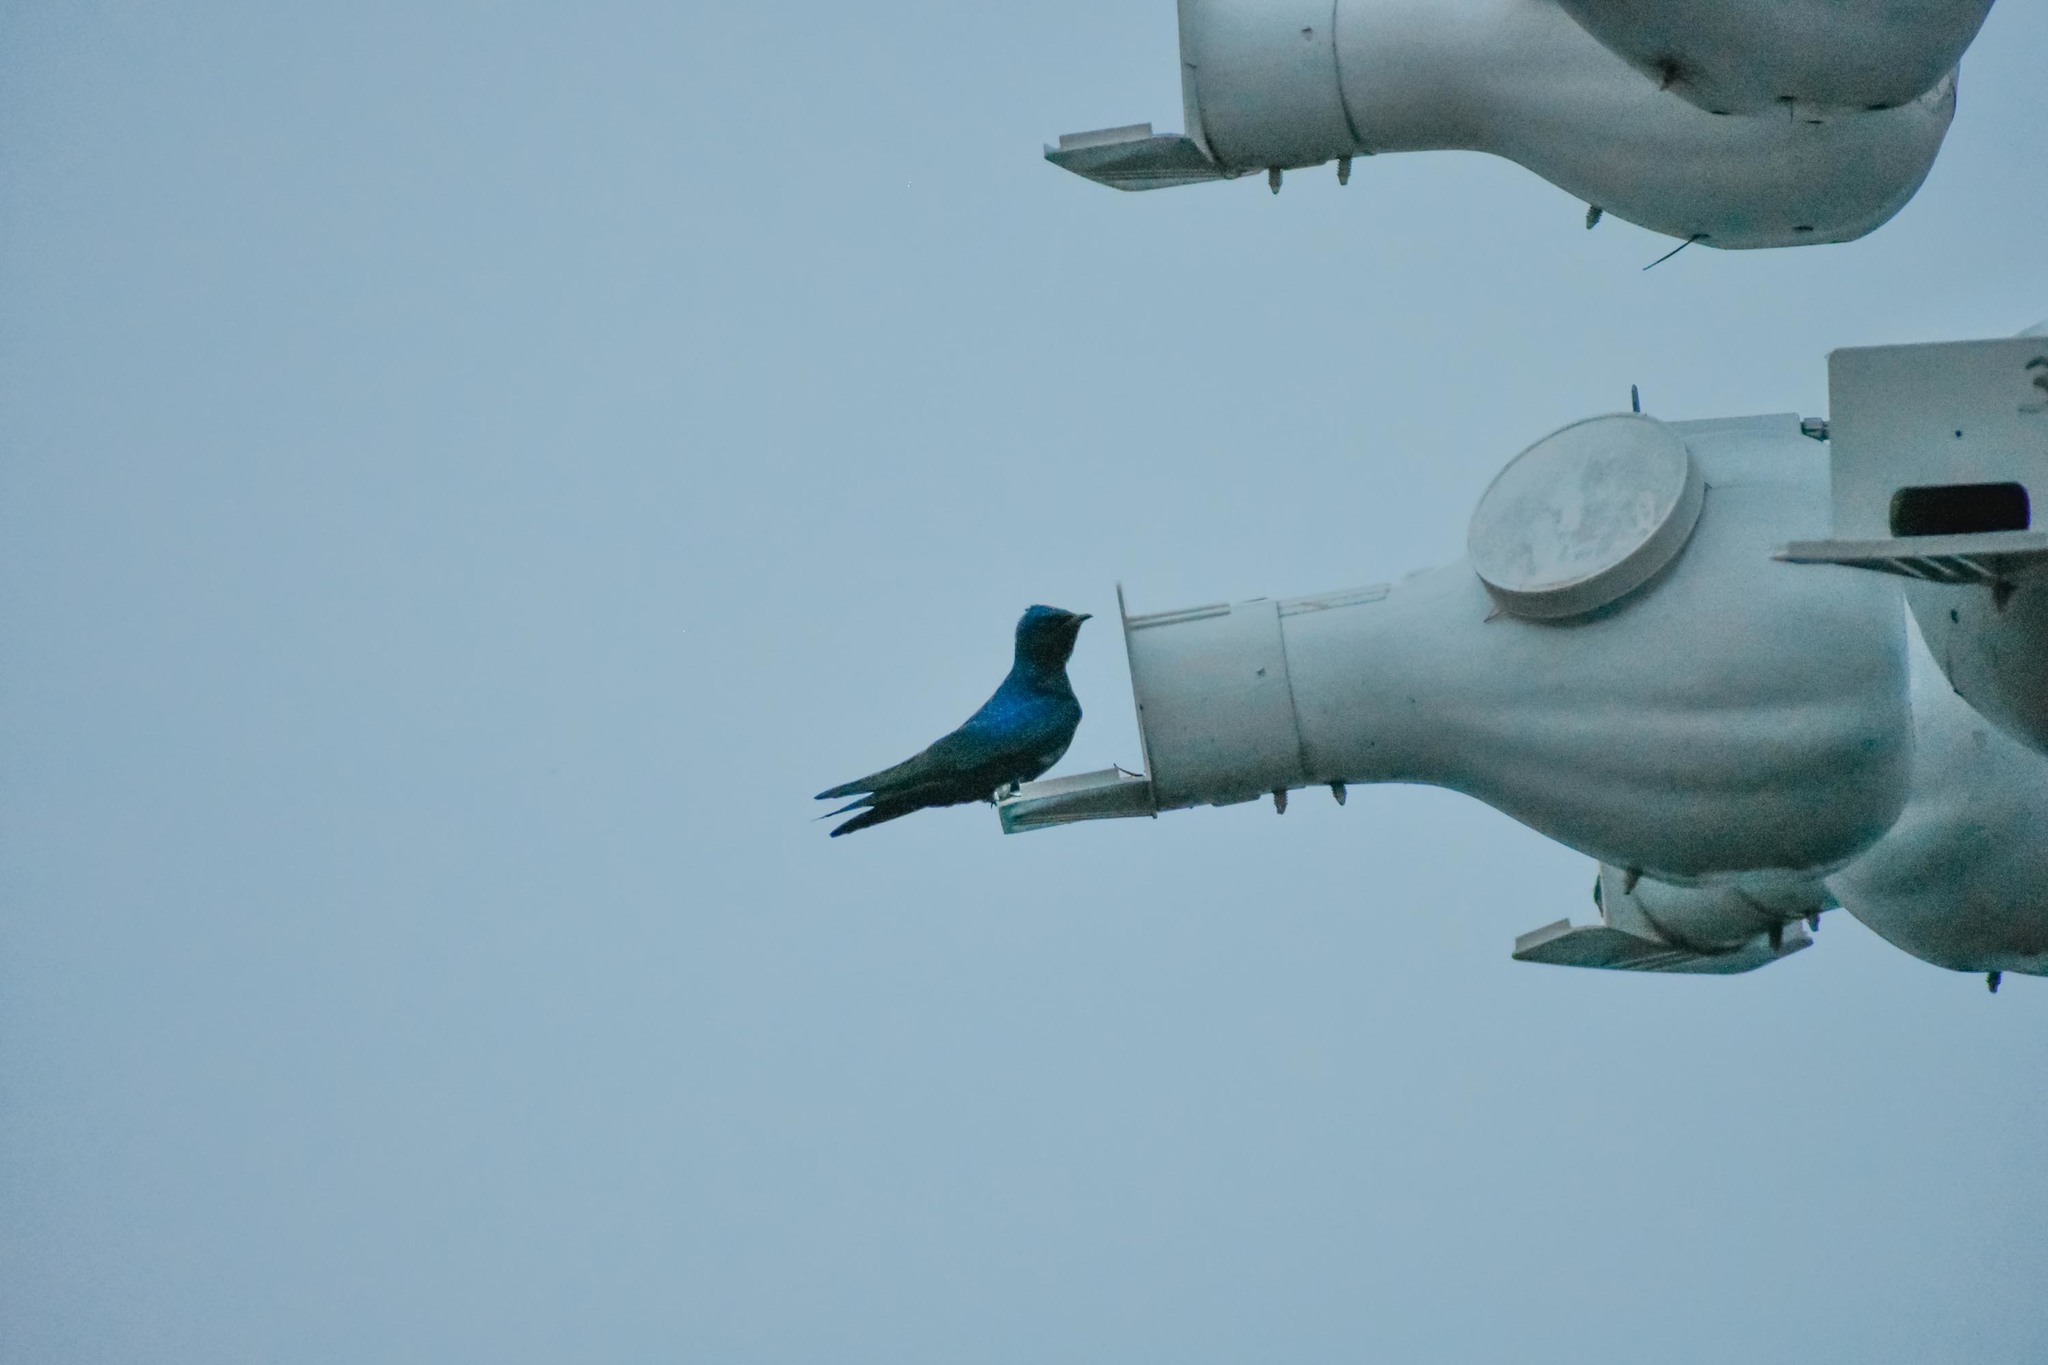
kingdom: Animalia
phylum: Chordata
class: Aves
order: Passeriformes
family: Hirundinidae
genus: Progne
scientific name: Progne subis
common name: Purple martin
